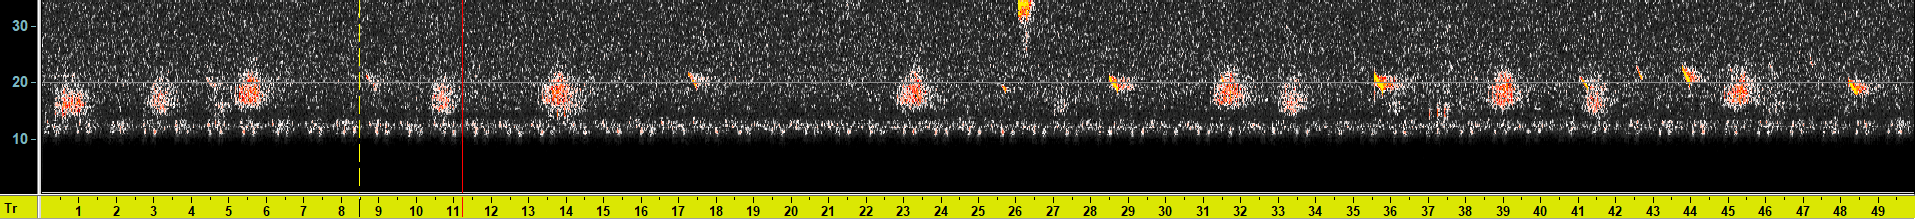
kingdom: Animalia
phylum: Chordata
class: Mammalia
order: Chiroptera
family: Vespertilionidae
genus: Nyctalus
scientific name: Nyctalus noctula
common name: Noctule
